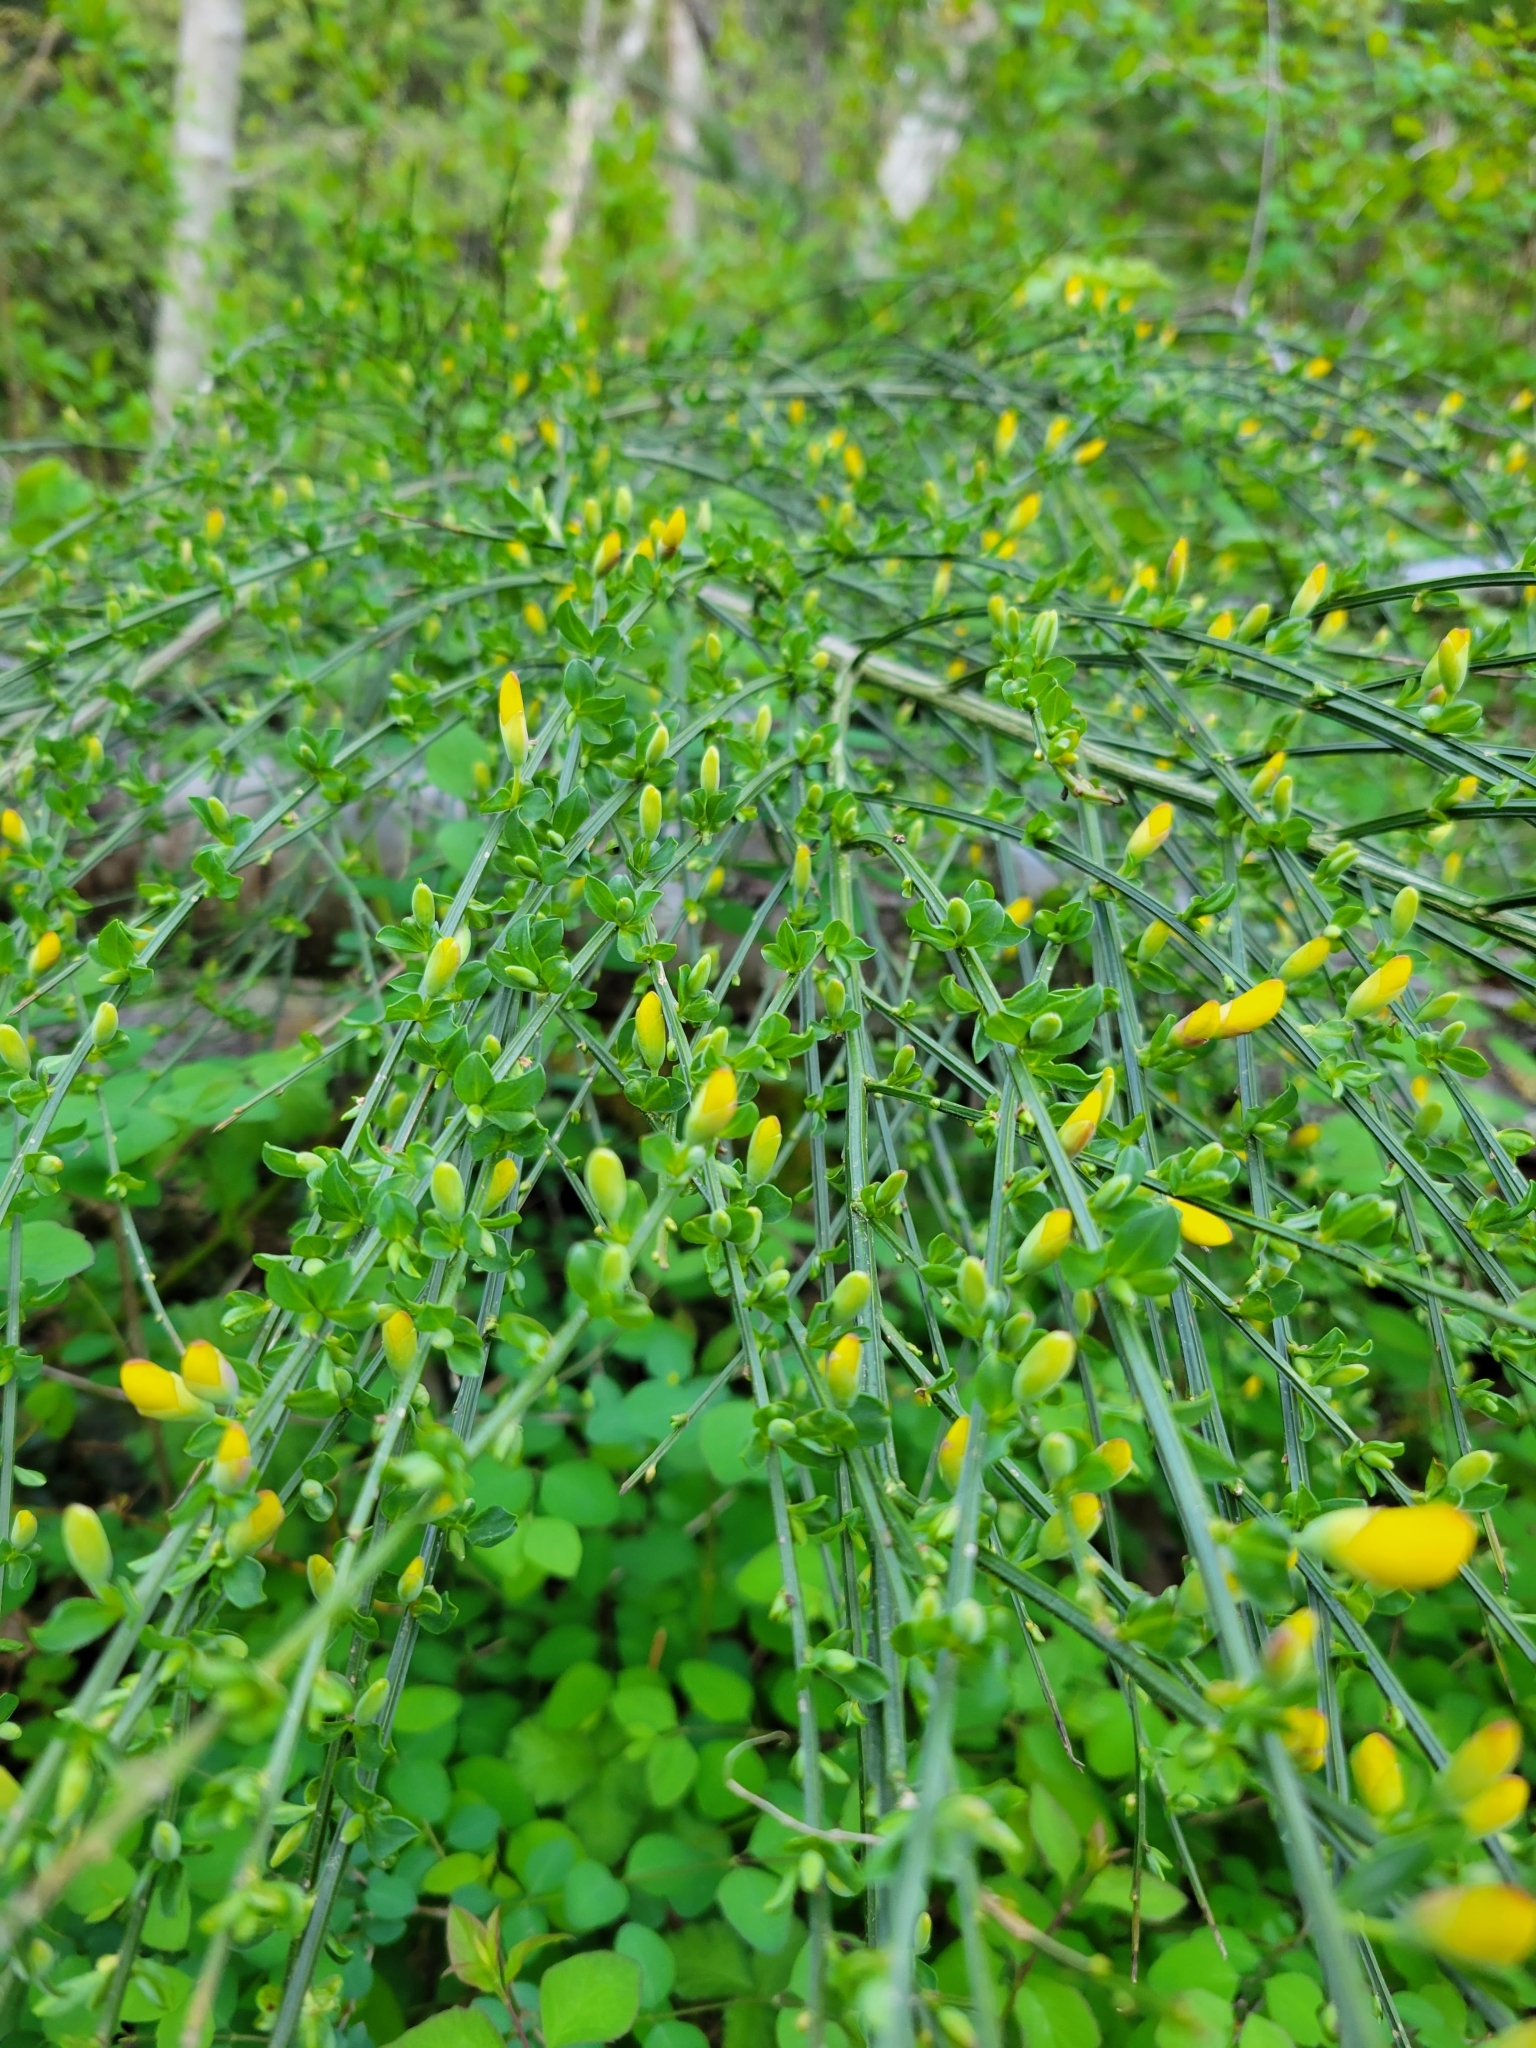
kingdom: Plantae
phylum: Tracheophyta
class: Magnoliopsida
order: Fabales
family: Fabaceae
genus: Cytisus
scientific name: Cytisus scoparius
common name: Scotch broom
